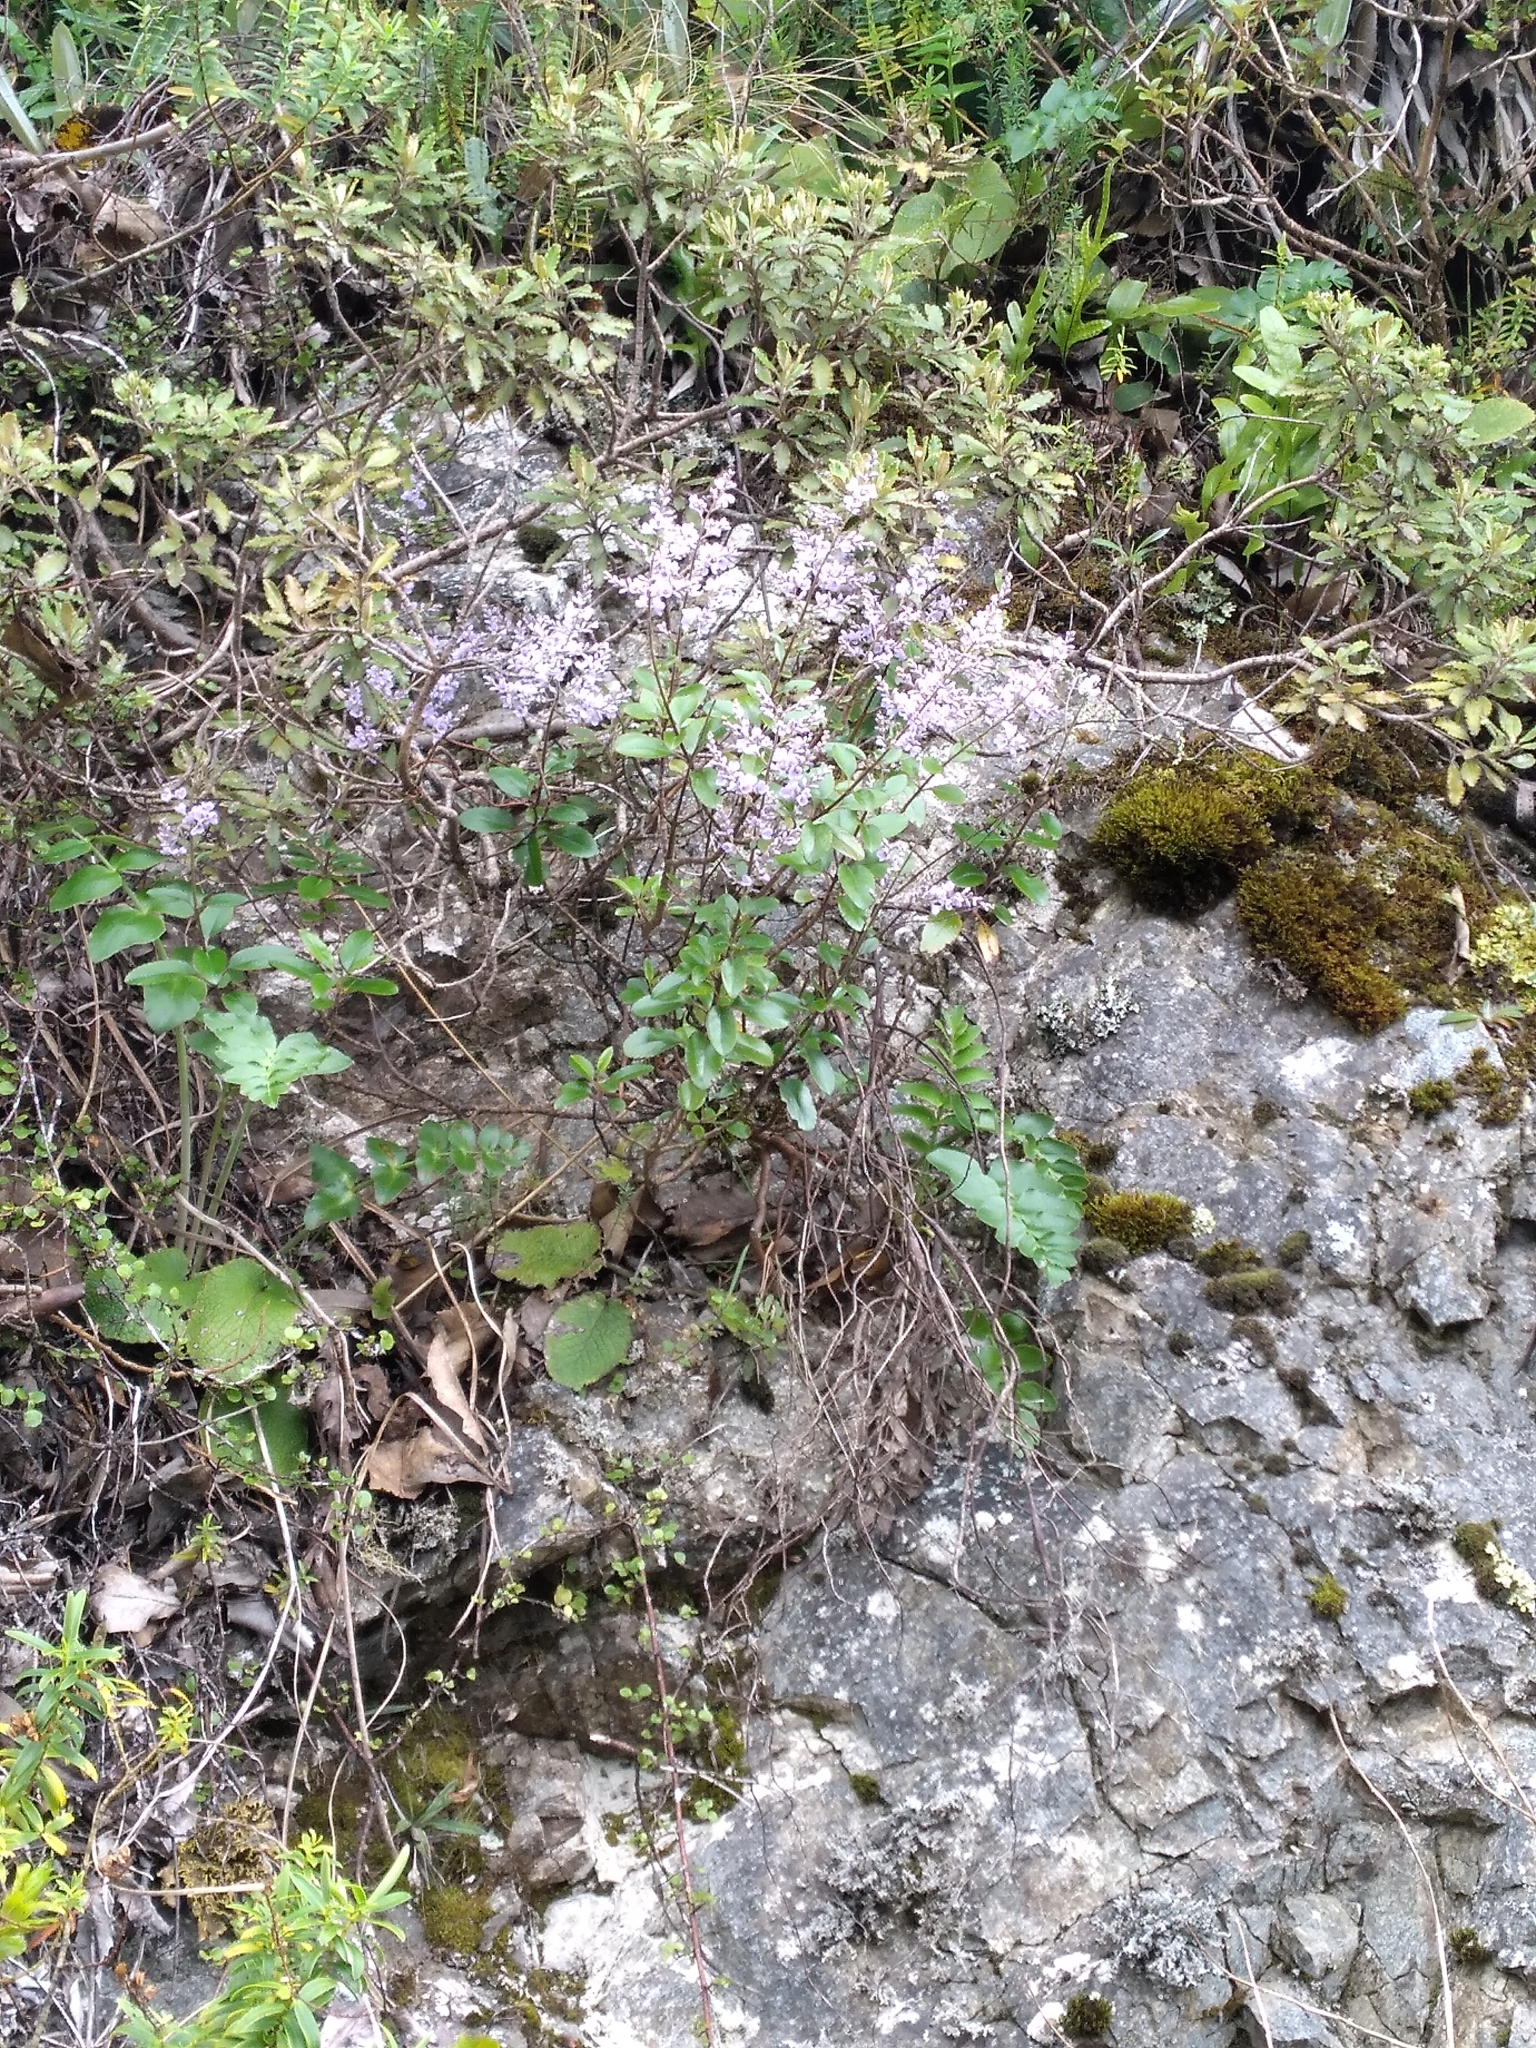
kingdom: Plantae
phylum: Tracheophyta
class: Magnoliopsida
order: Lamiales
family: Plantaginaceae
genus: Veronica
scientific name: Veronica hulkeana
